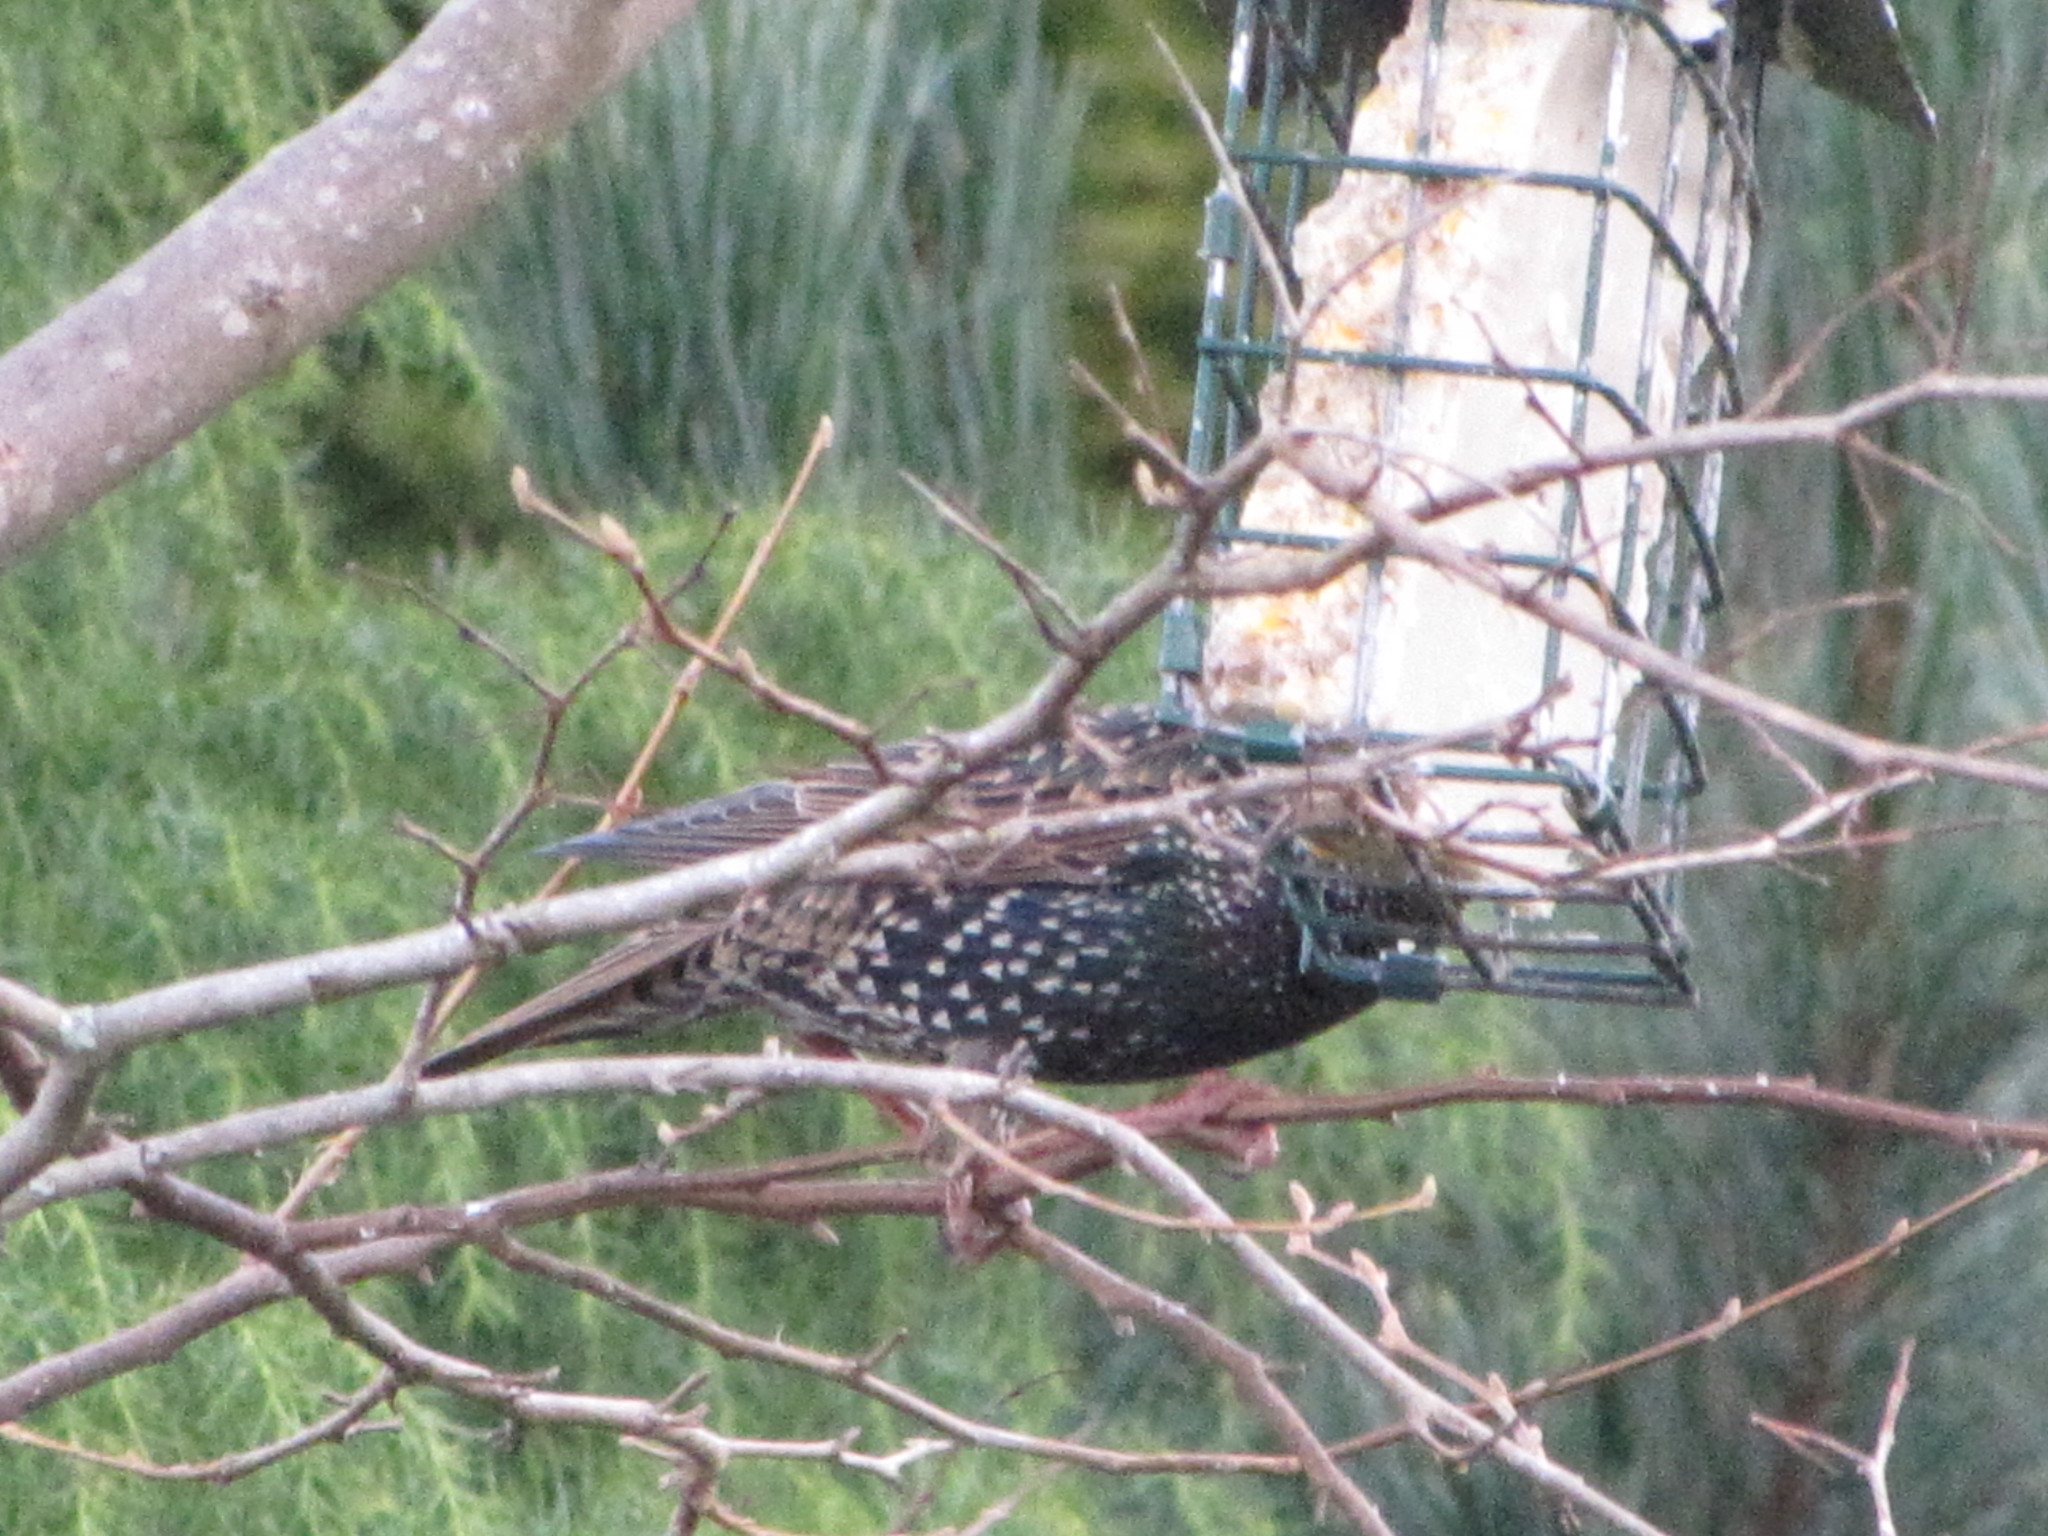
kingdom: Animalia
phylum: Chordata
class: Aves
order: Passeriformes
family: Sturnidae
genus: Sturnus
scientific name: Sturnus vulgaris
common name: Common starling
